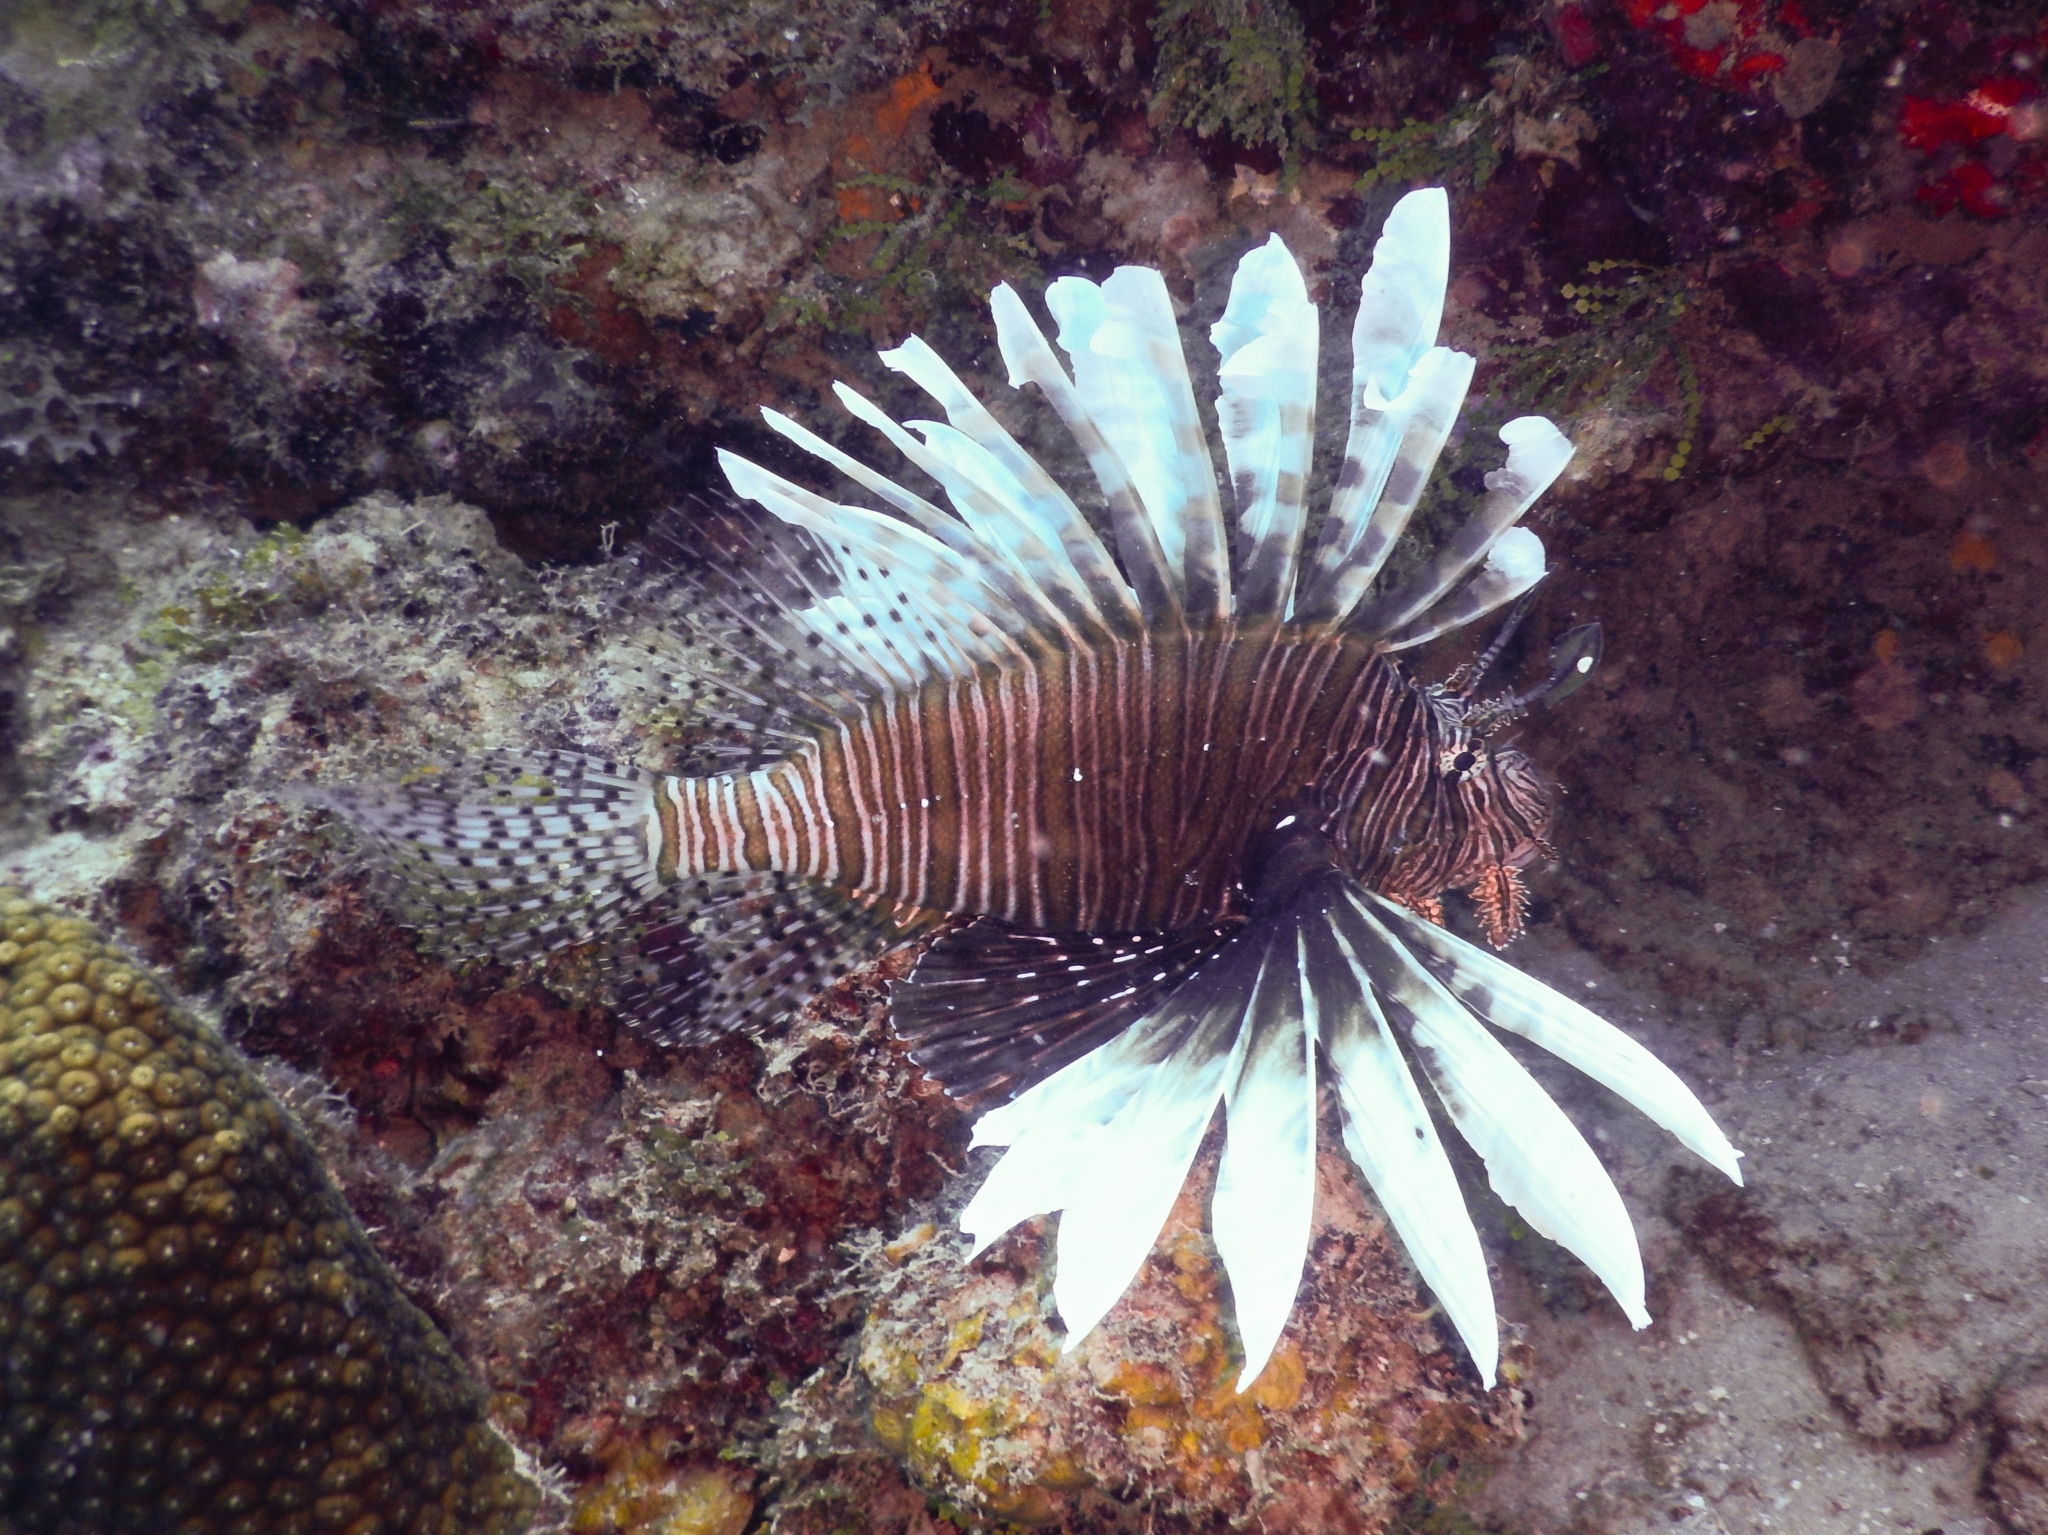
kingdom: Animalia
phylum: Chordata
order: Scorpaeniformes
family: Scorpaenidae
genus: Pterois
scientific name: Pterois volitans
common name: Lionfish
